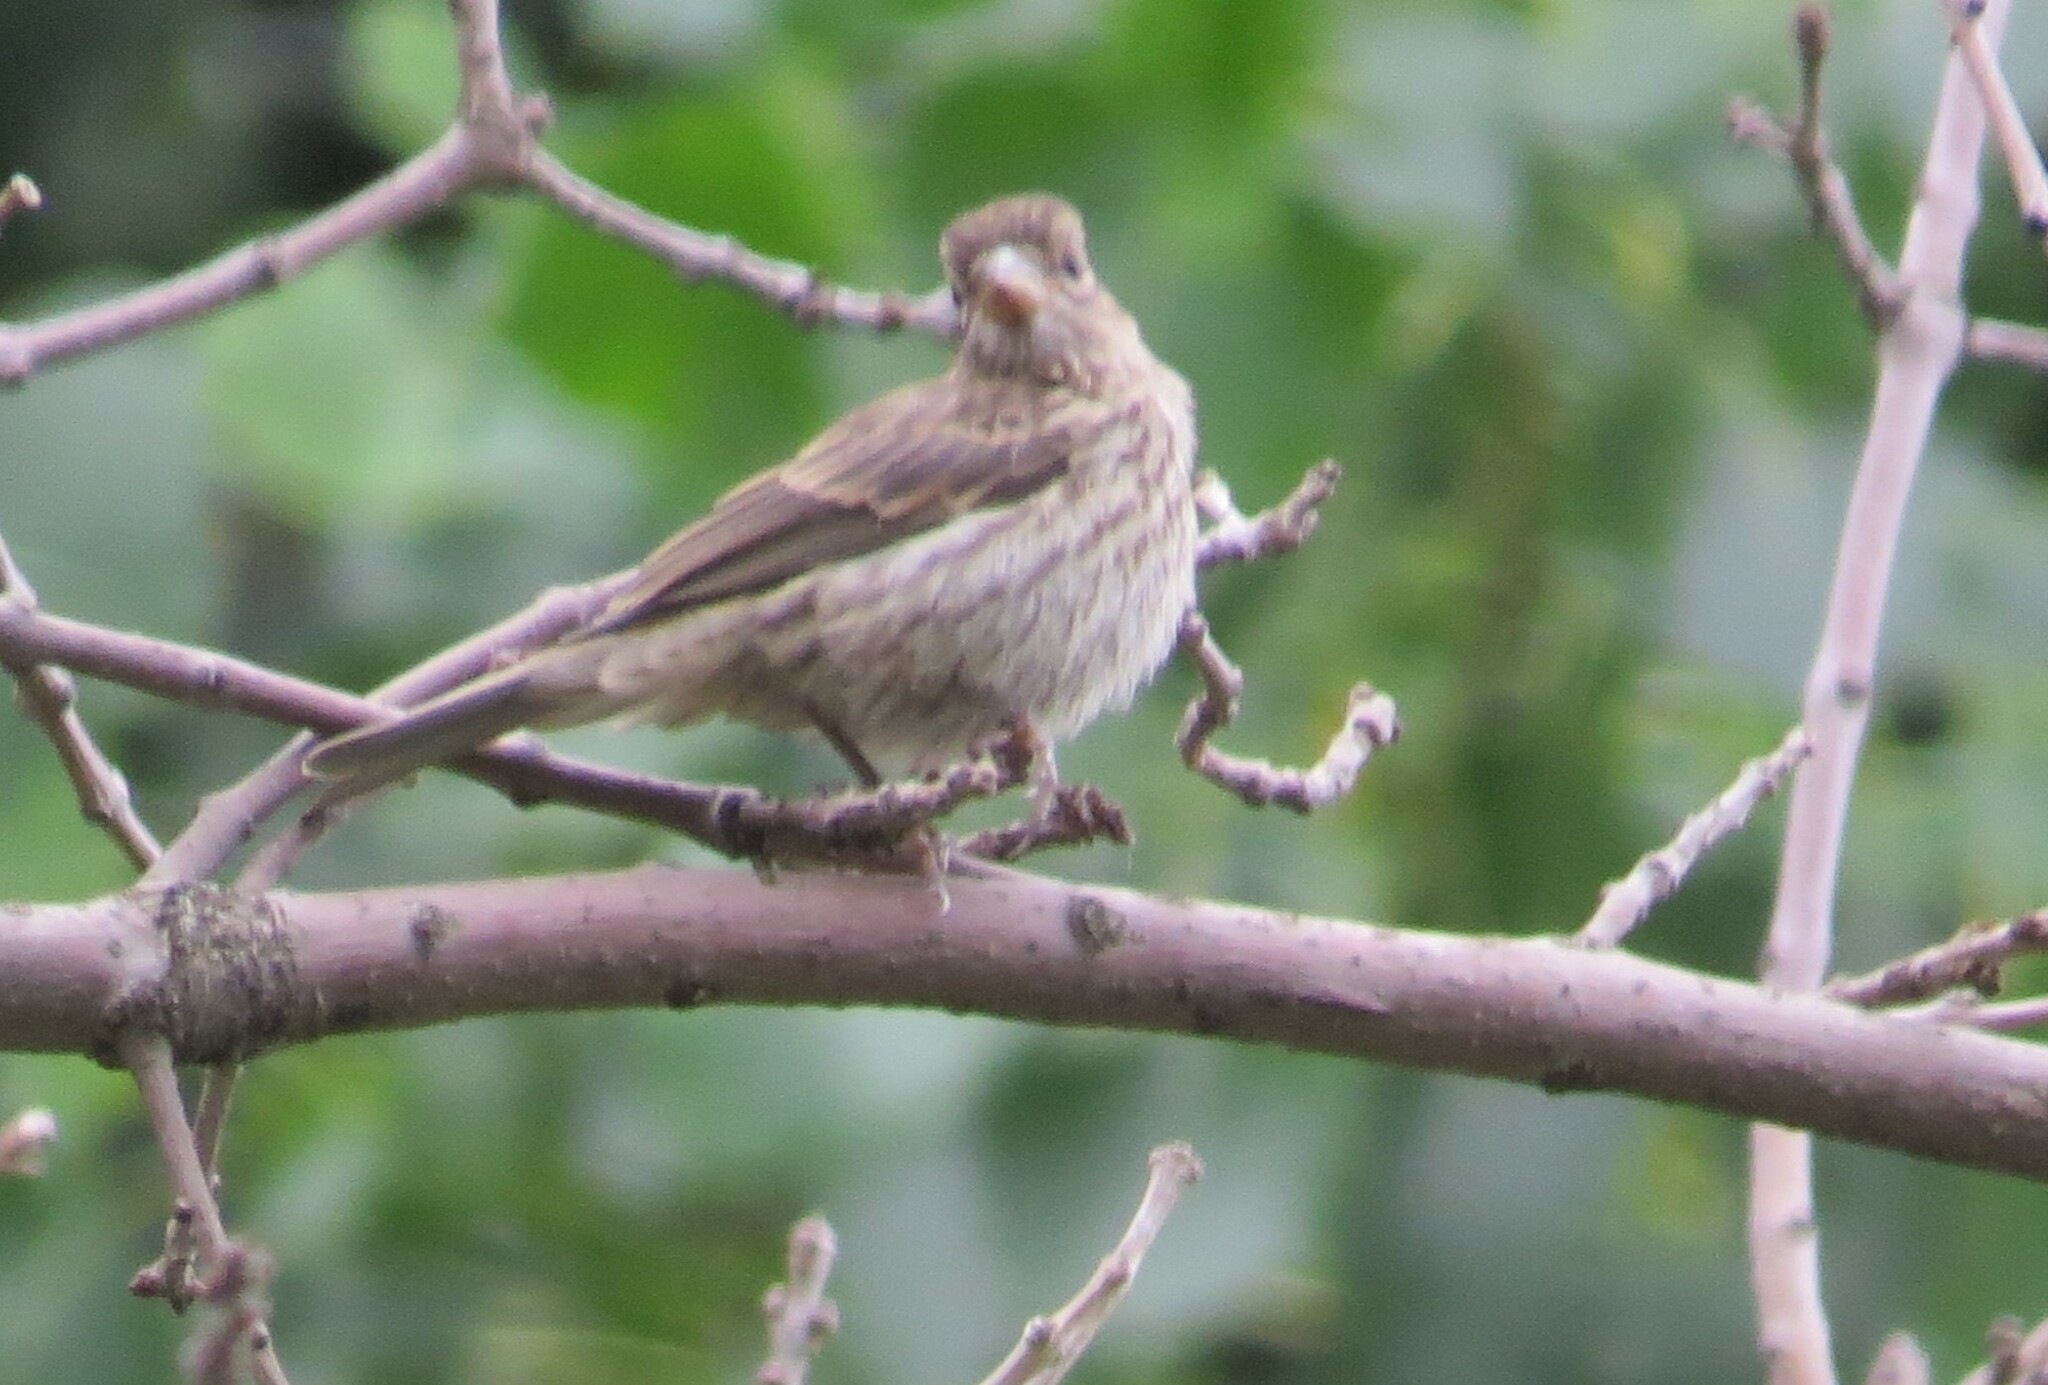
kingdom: Animalia
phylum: Chordata
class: Aves
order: Passeriformes
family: Fringillidae
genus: Haemorhous
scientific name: Haemorhous mexicanus
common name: House finch
